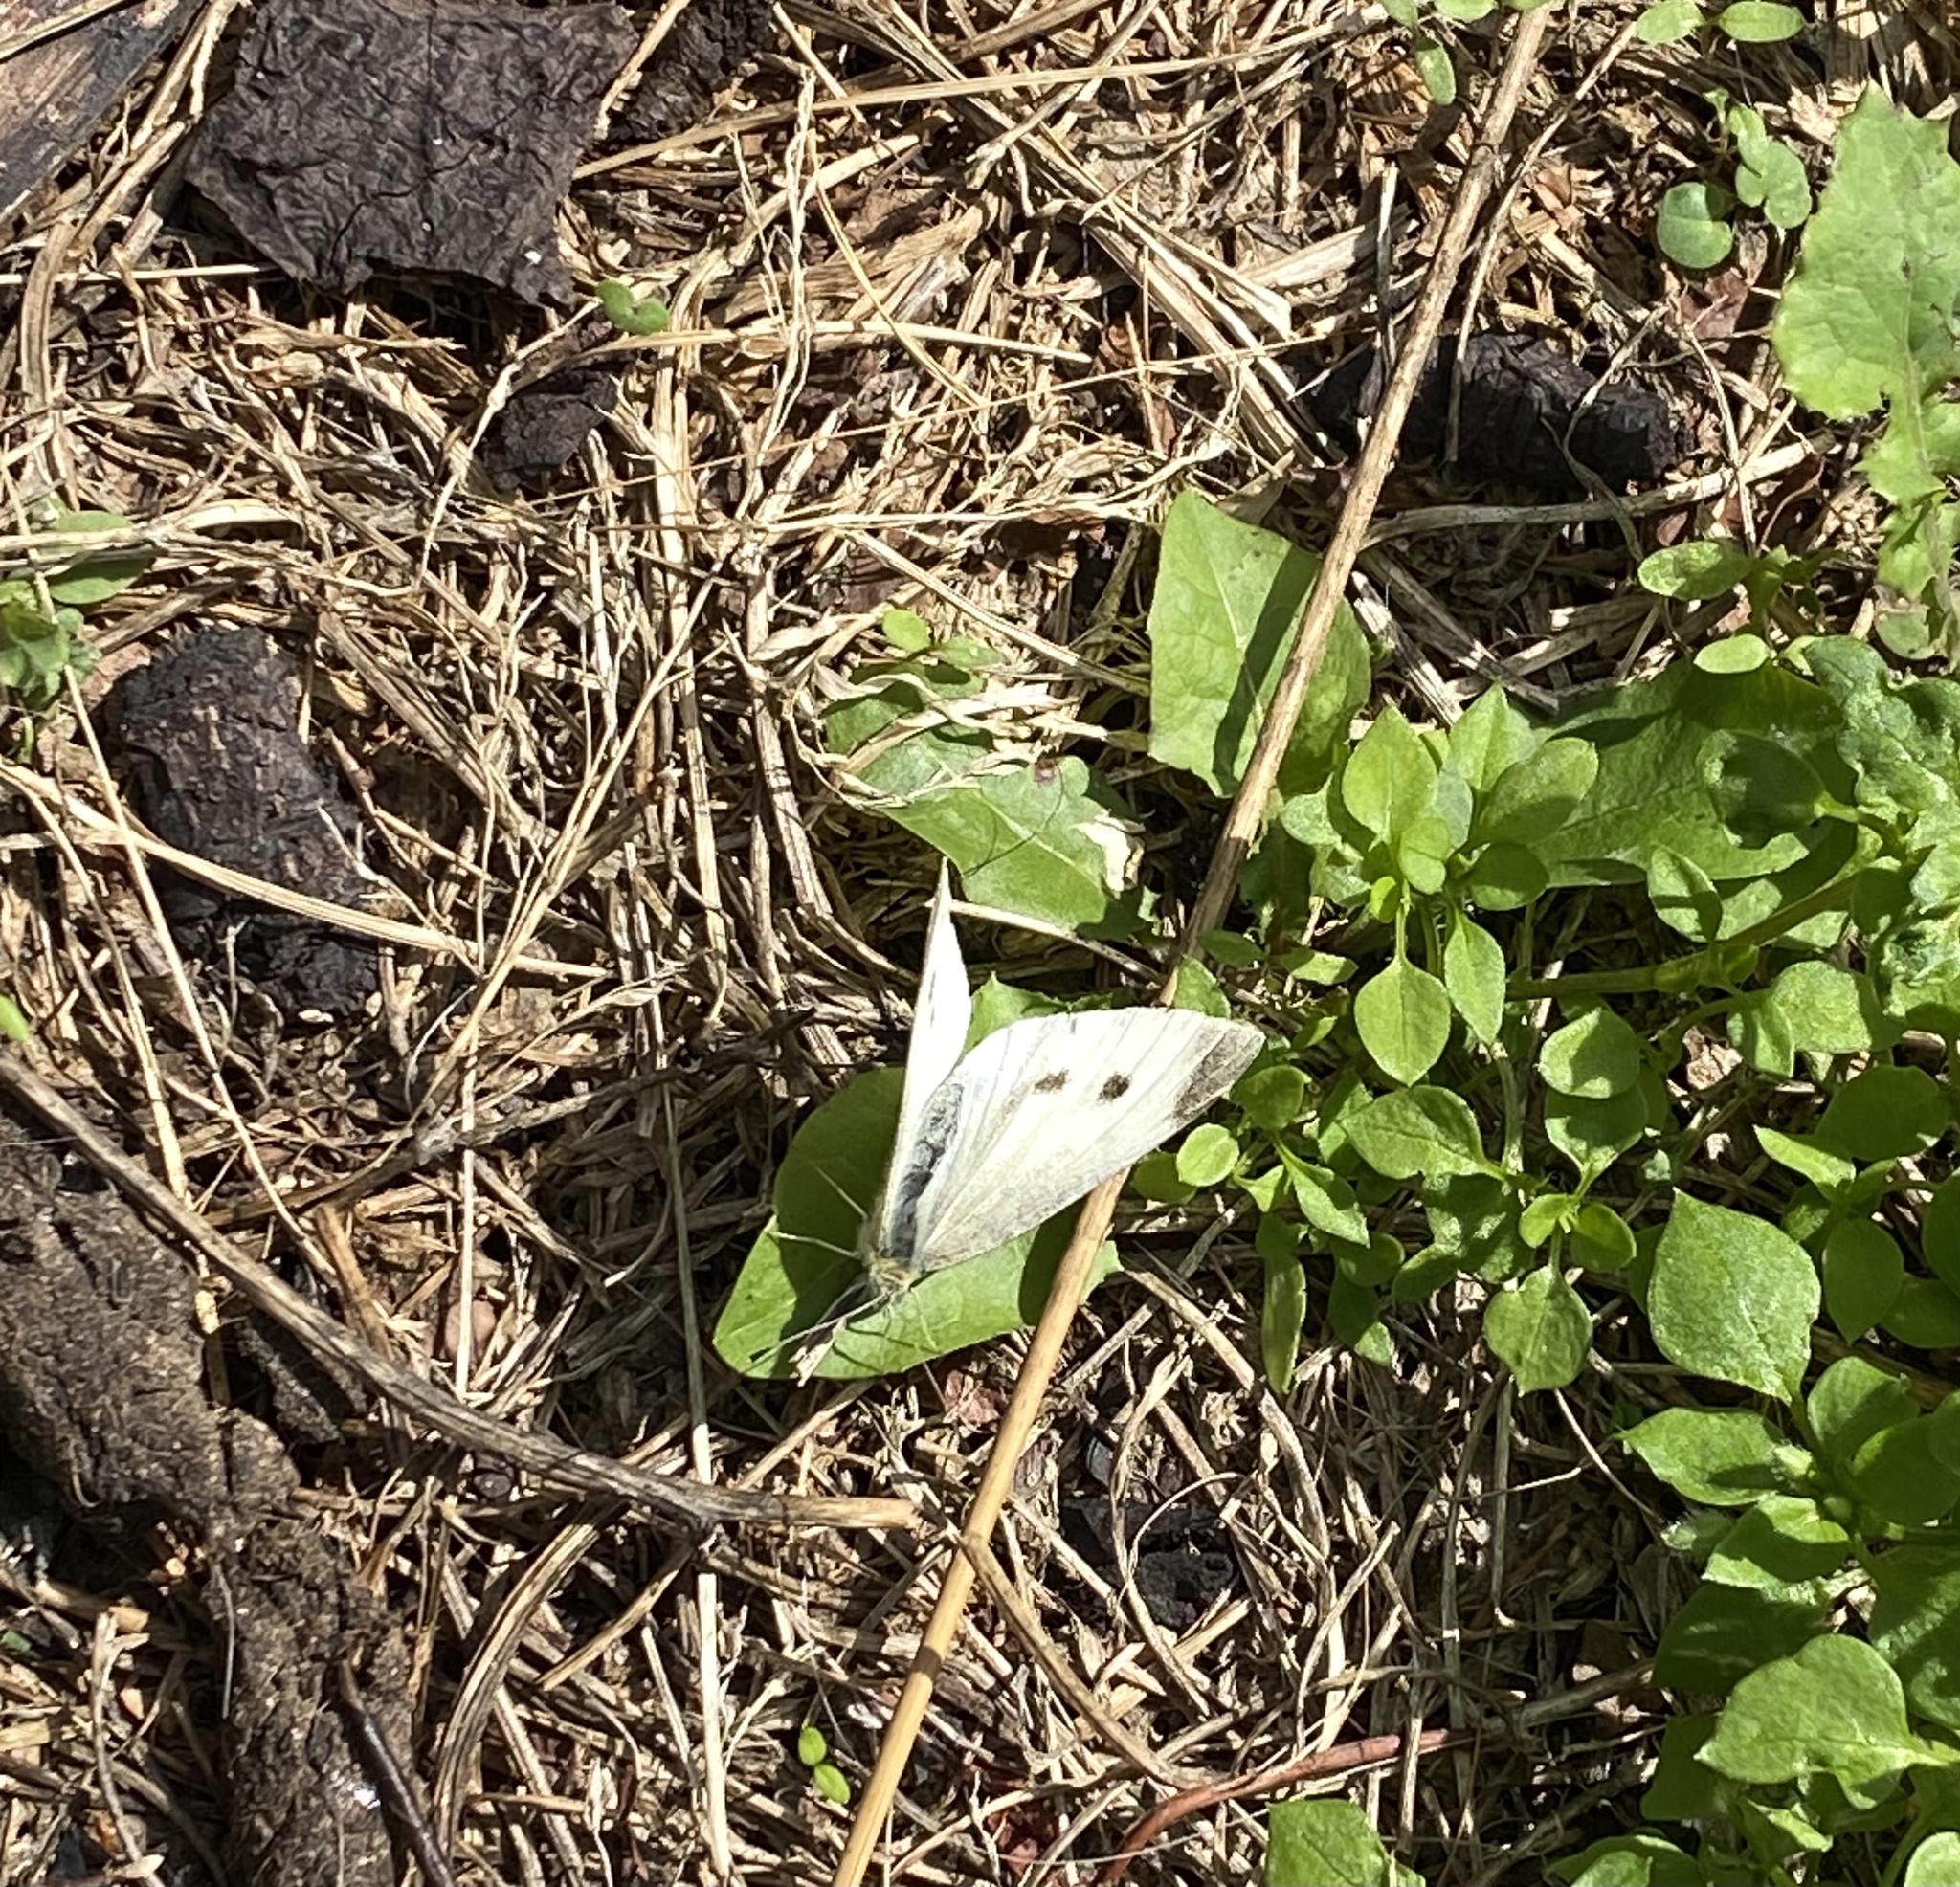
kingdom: Animalia
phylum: Arthropoda
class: Insecta
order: Lepidoptera
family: Pieridae
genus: Pieris
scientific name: Pieris rapae
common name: Small white
